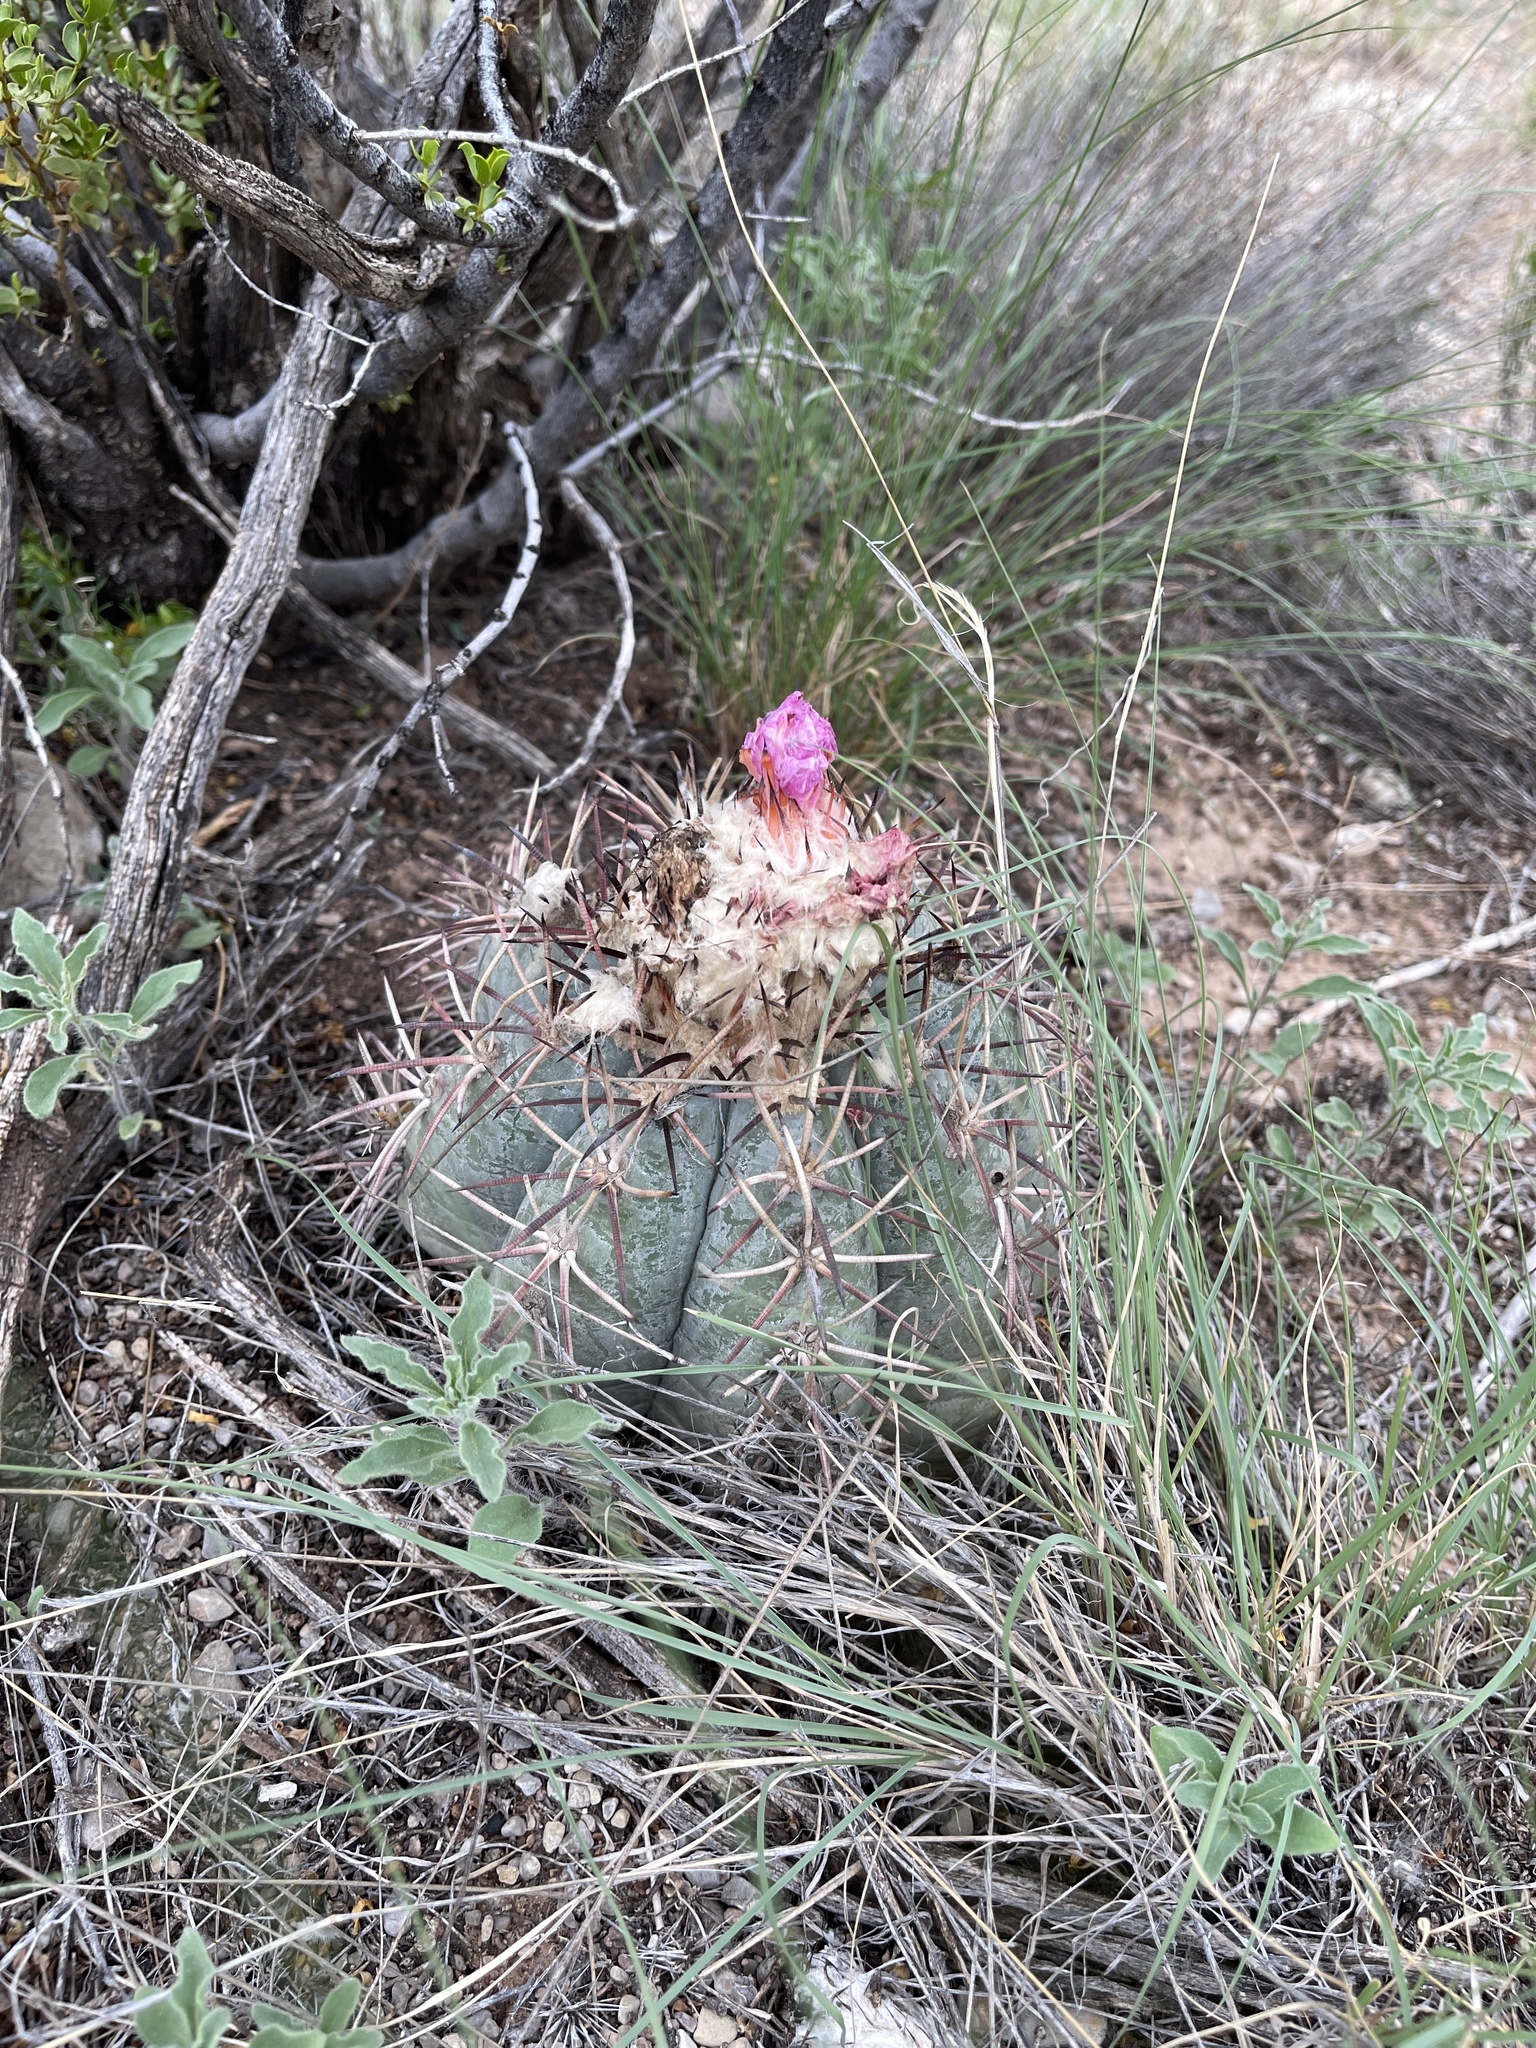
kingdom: Plantae
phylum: Tracheophyta
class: Magnoliopsida
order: Caryophyllales
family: Cactaceae
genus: Echinocactus
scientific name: Echinocactus horizonthalonius
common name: Devilshead
